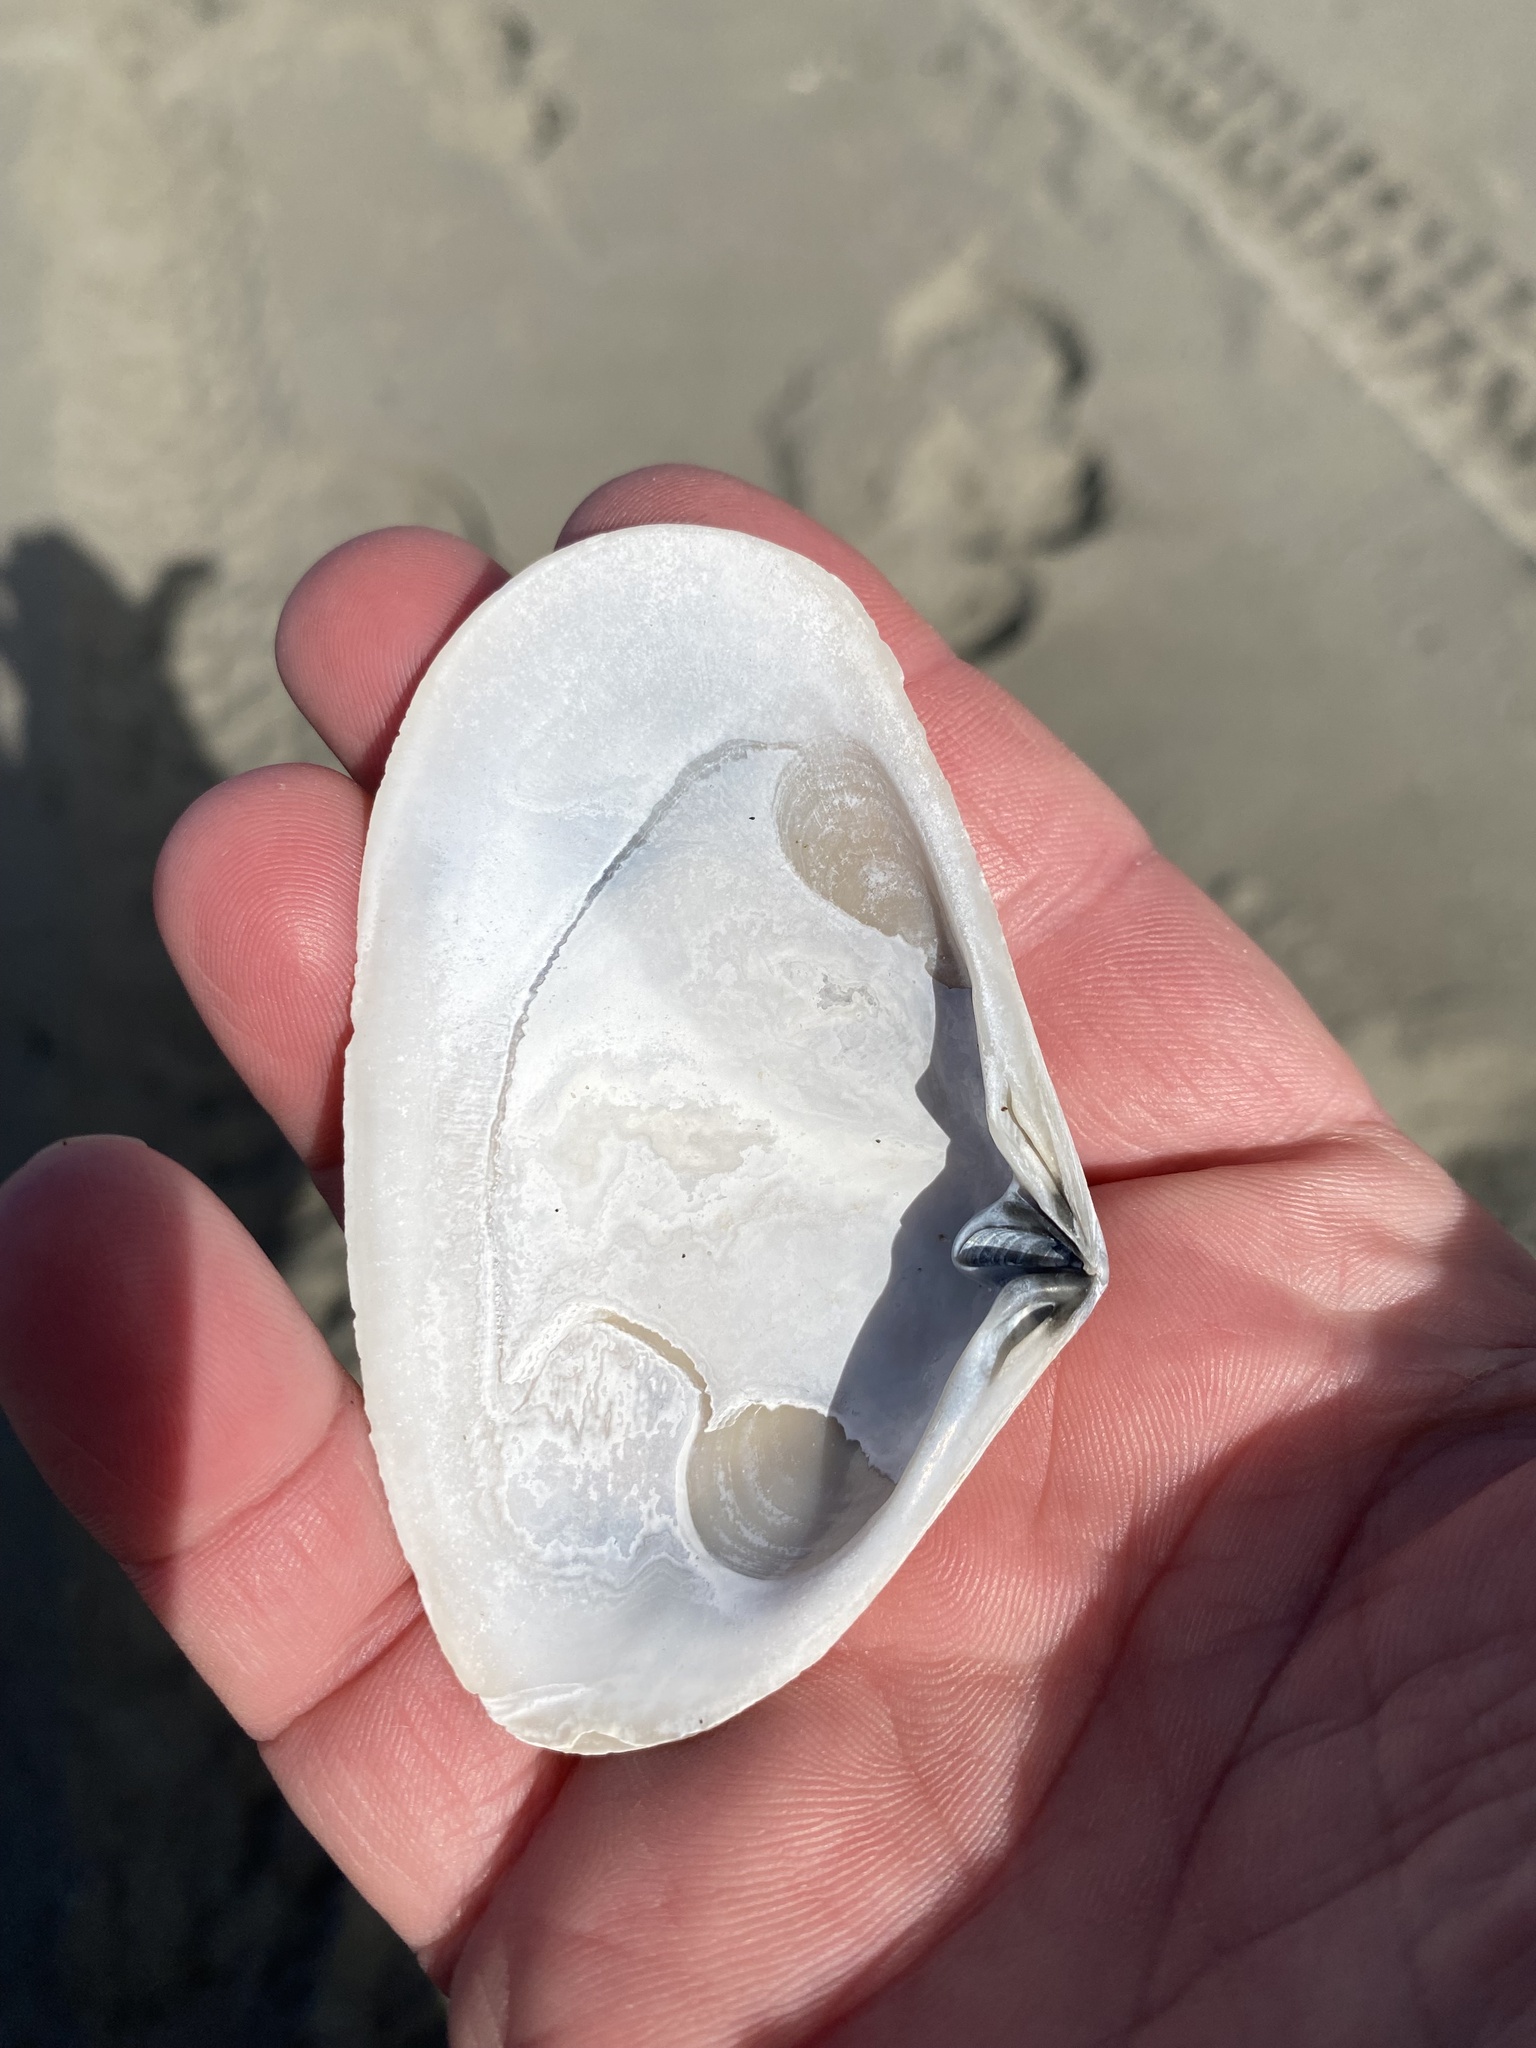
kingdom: Animalia
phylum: Mollusca
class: Bivalvia
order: Venerida
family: Mesodesmatidae
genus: Paphies
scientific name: Paphies subtriangulata
